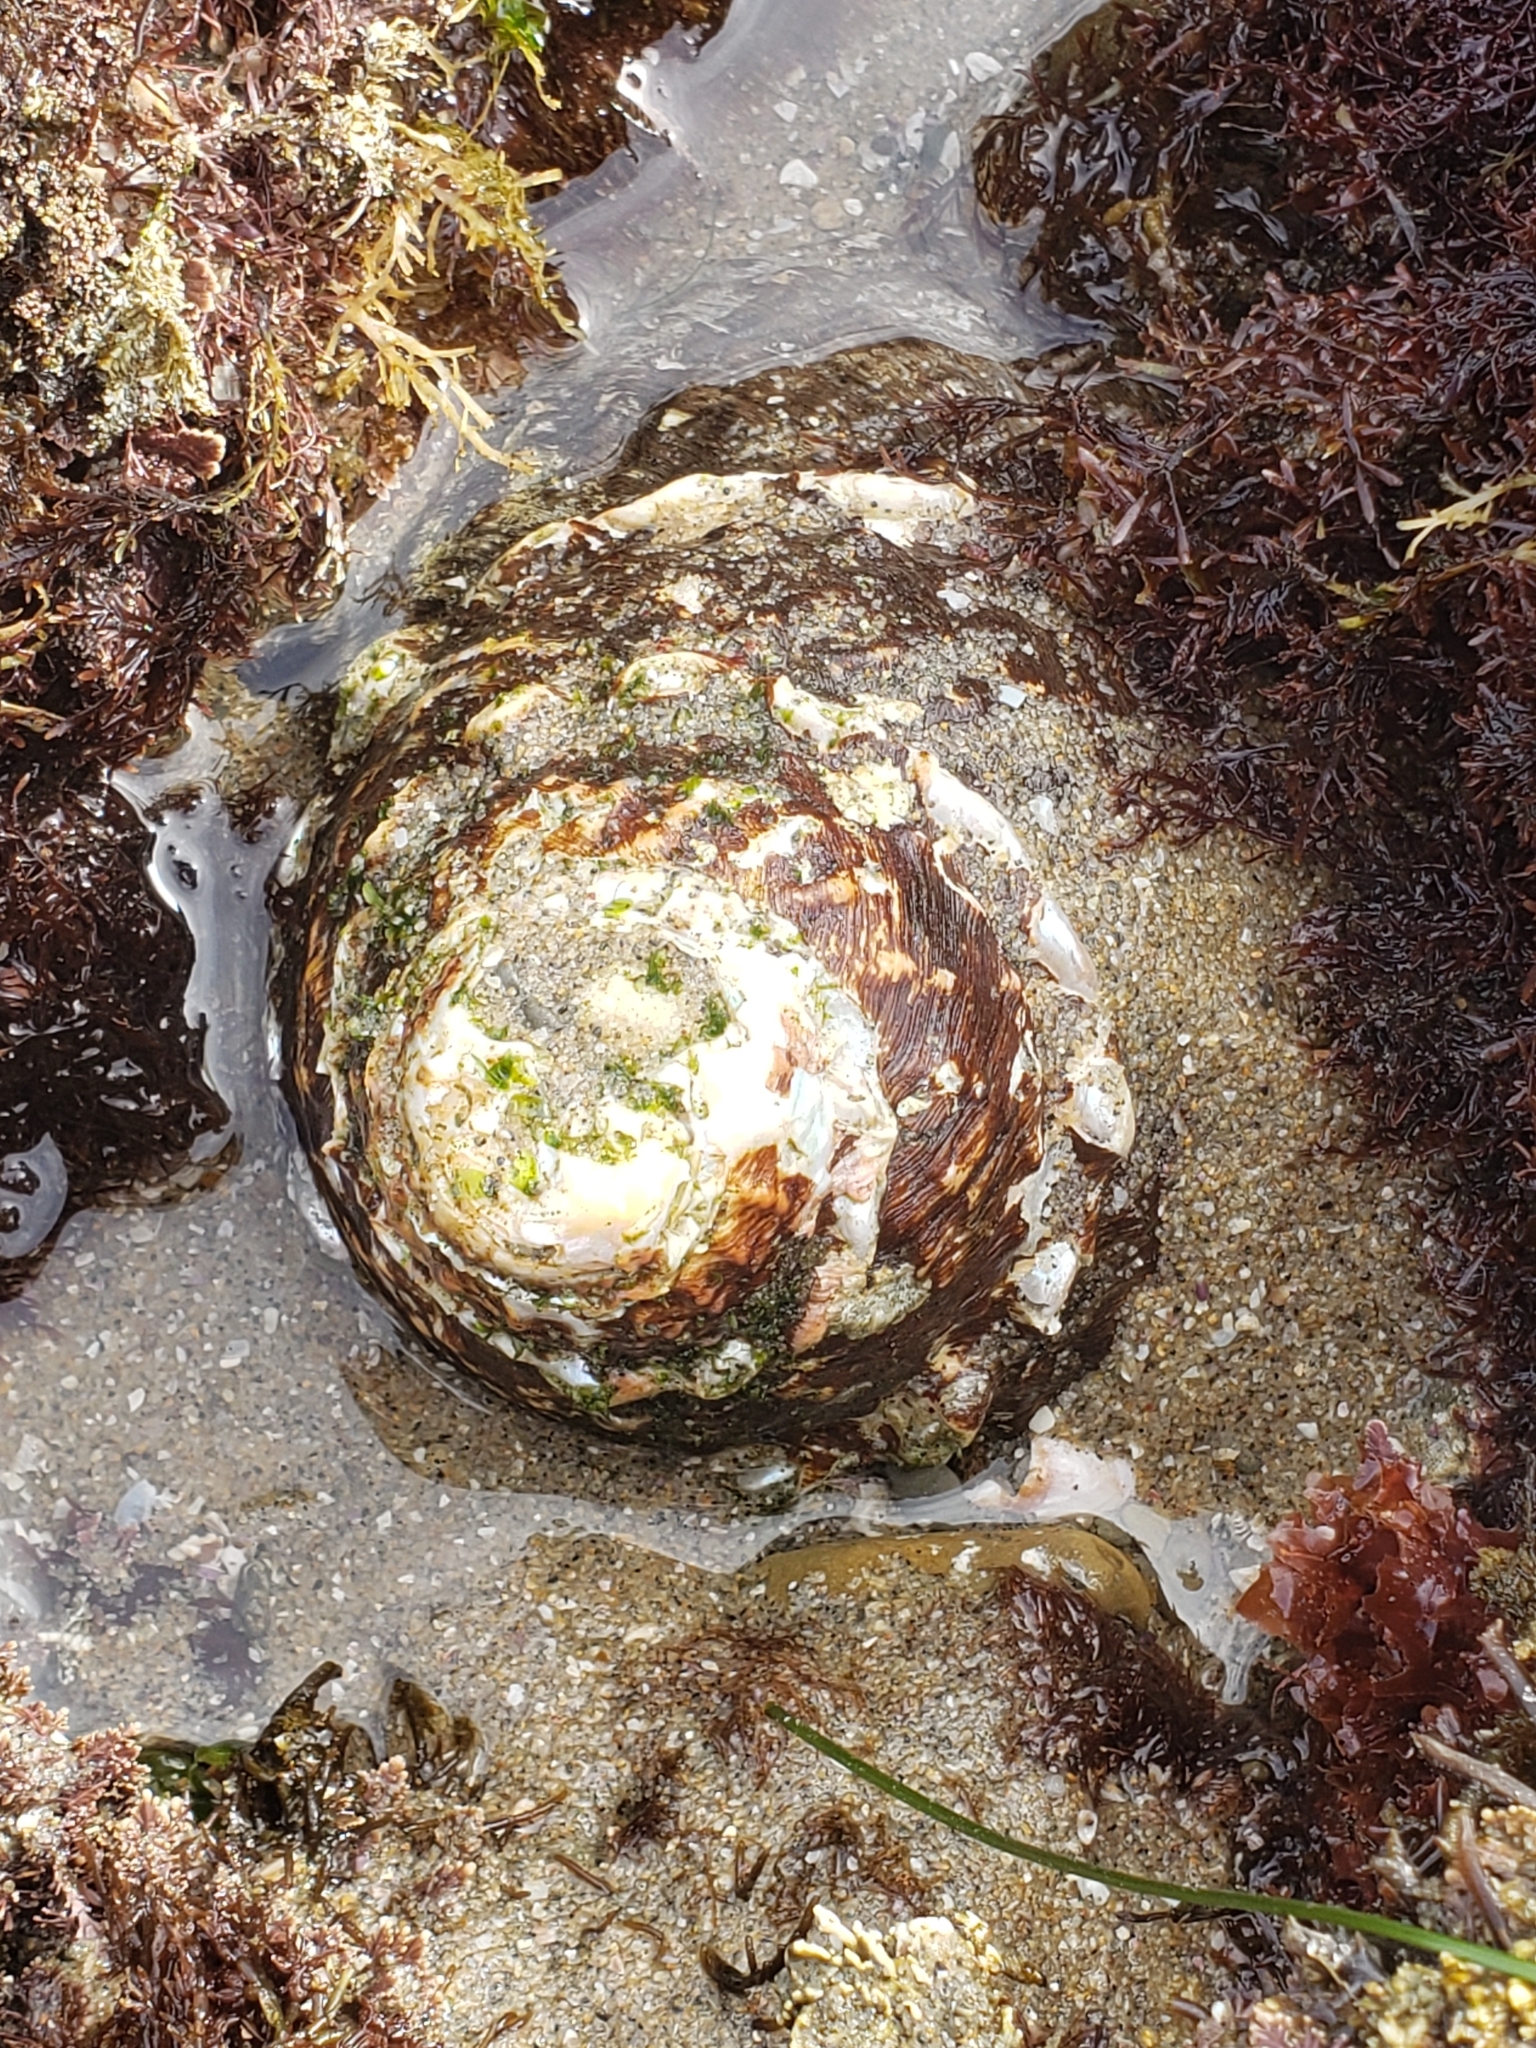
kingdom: Animalia
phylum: Mollusca
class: Gastropoda
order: Trochida
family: Turbinidae
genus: Megastraea
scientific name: Megastraea undosa
